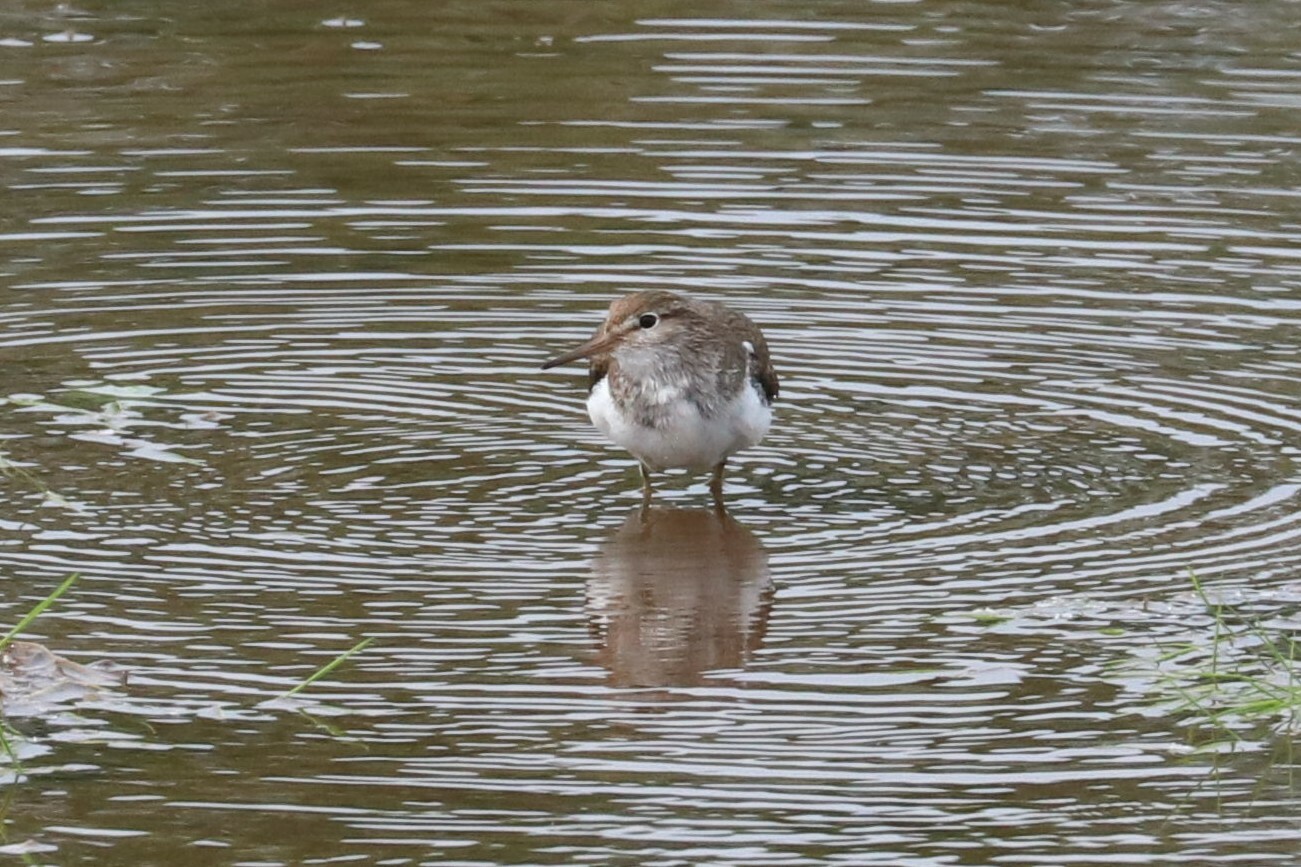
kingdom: Animalia
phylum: Chordata
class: Aves
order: Charadriiformes
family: Scolopacidae
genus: Actitis
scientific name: Actitis hypoleucos
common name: Common sandpiper
